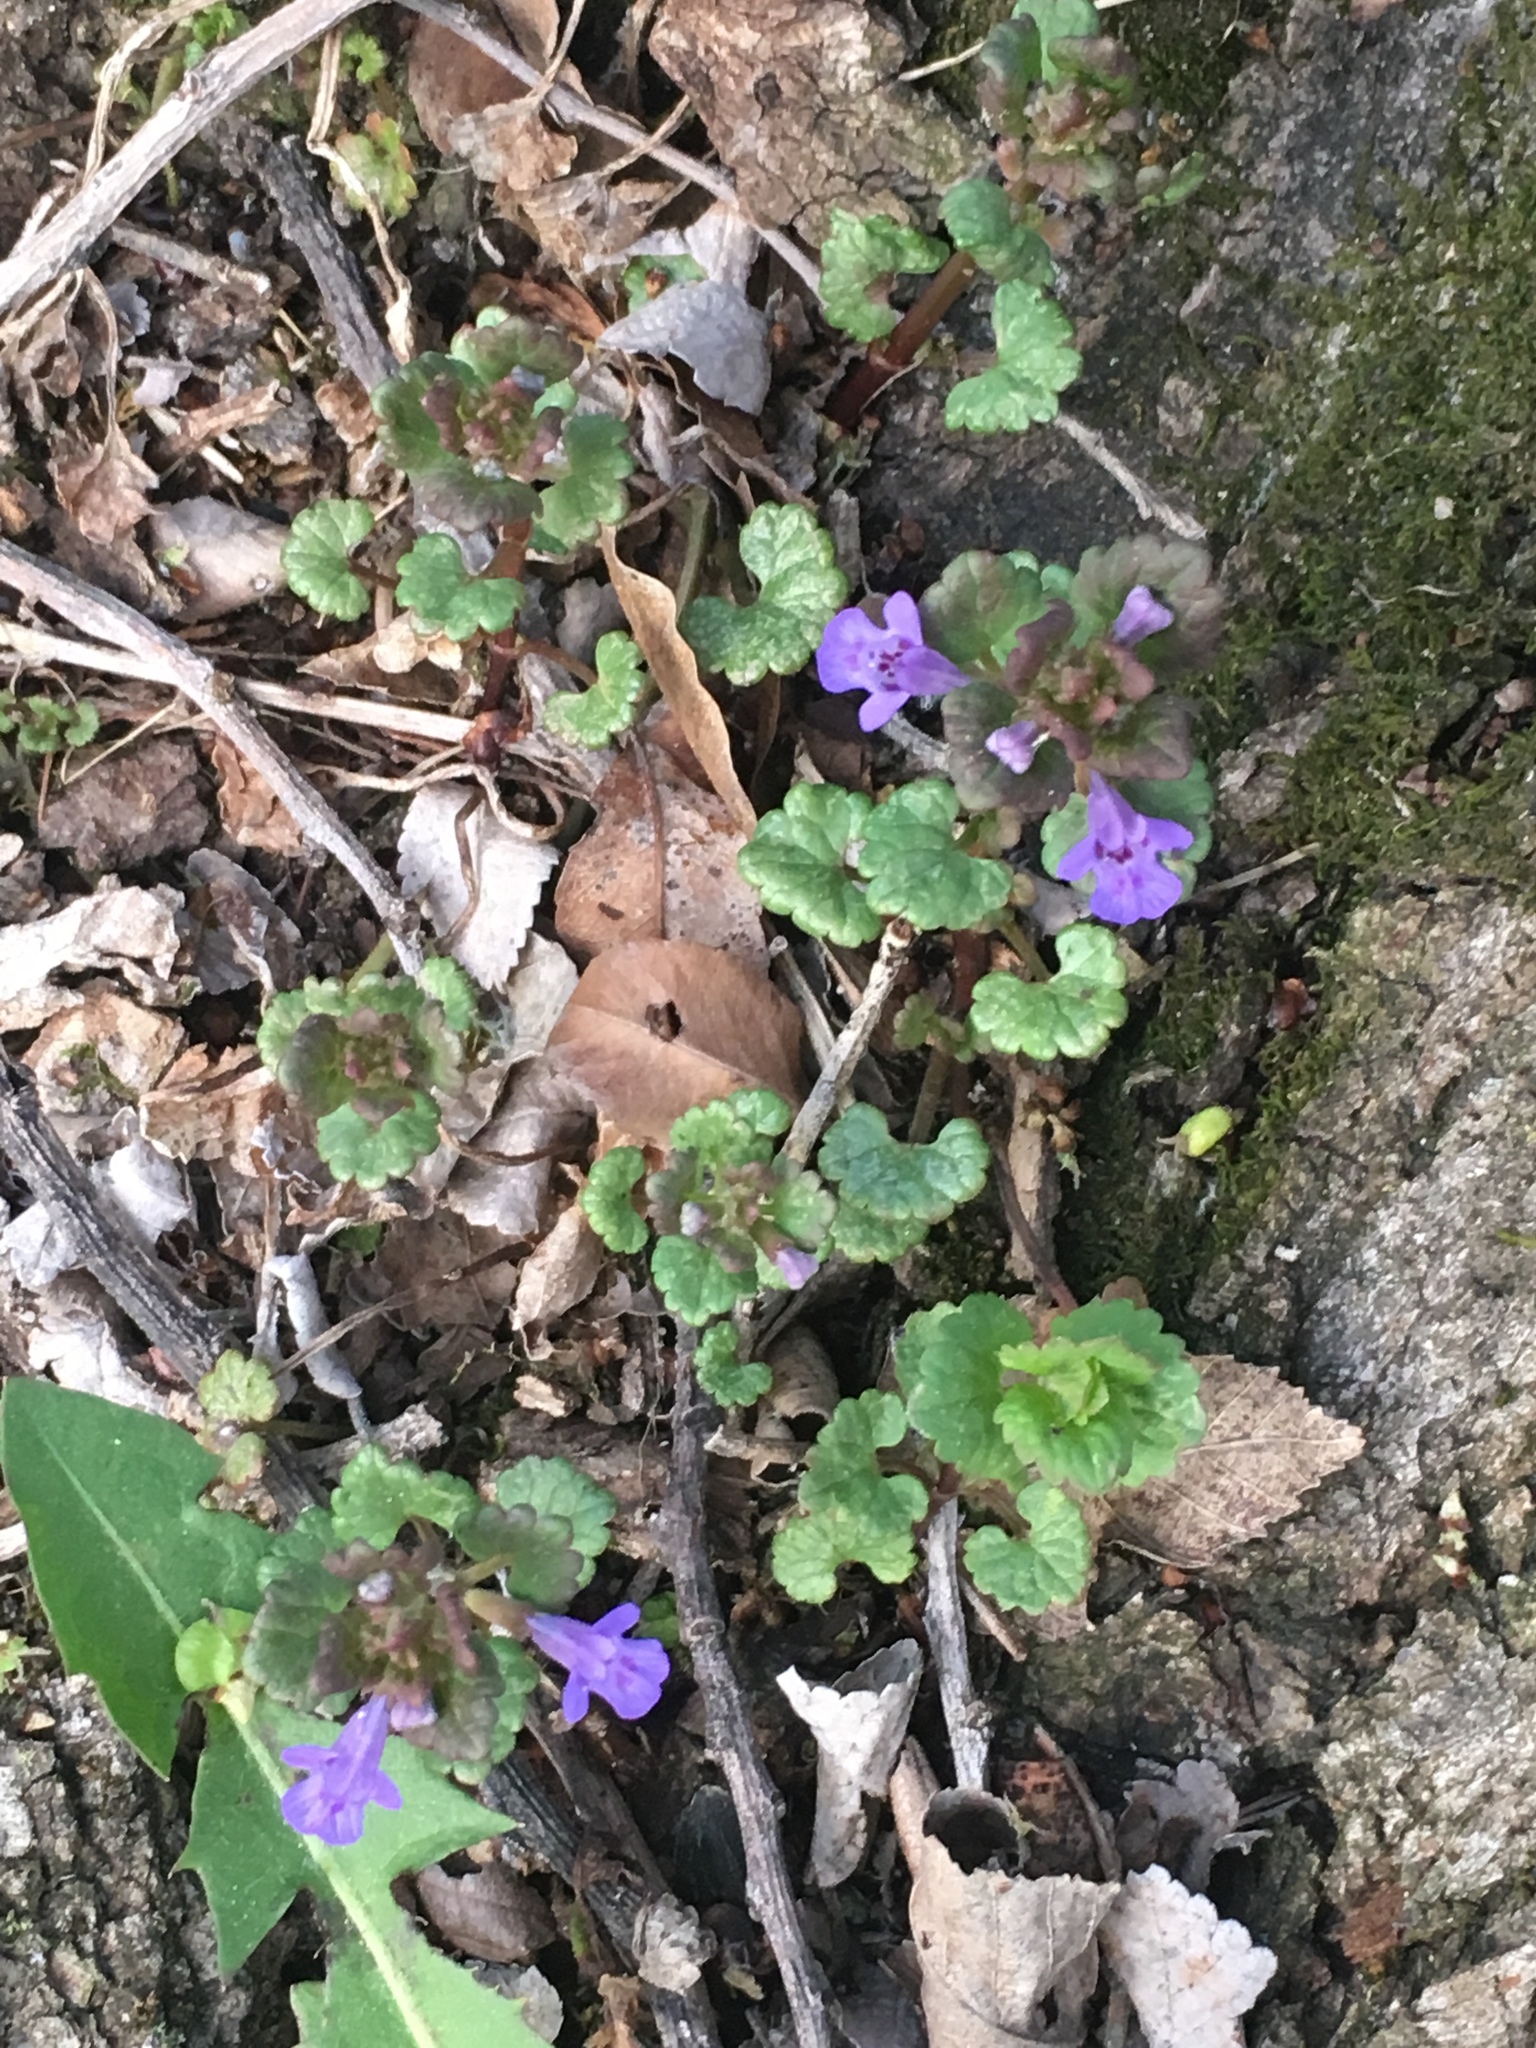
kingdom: Plantae
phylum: Tracheophyta
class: Magnoliopsida
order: Lamiales
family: Lamiaceae
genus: Glechoma
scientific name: Glechoma hederacea
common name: Ground ivy
